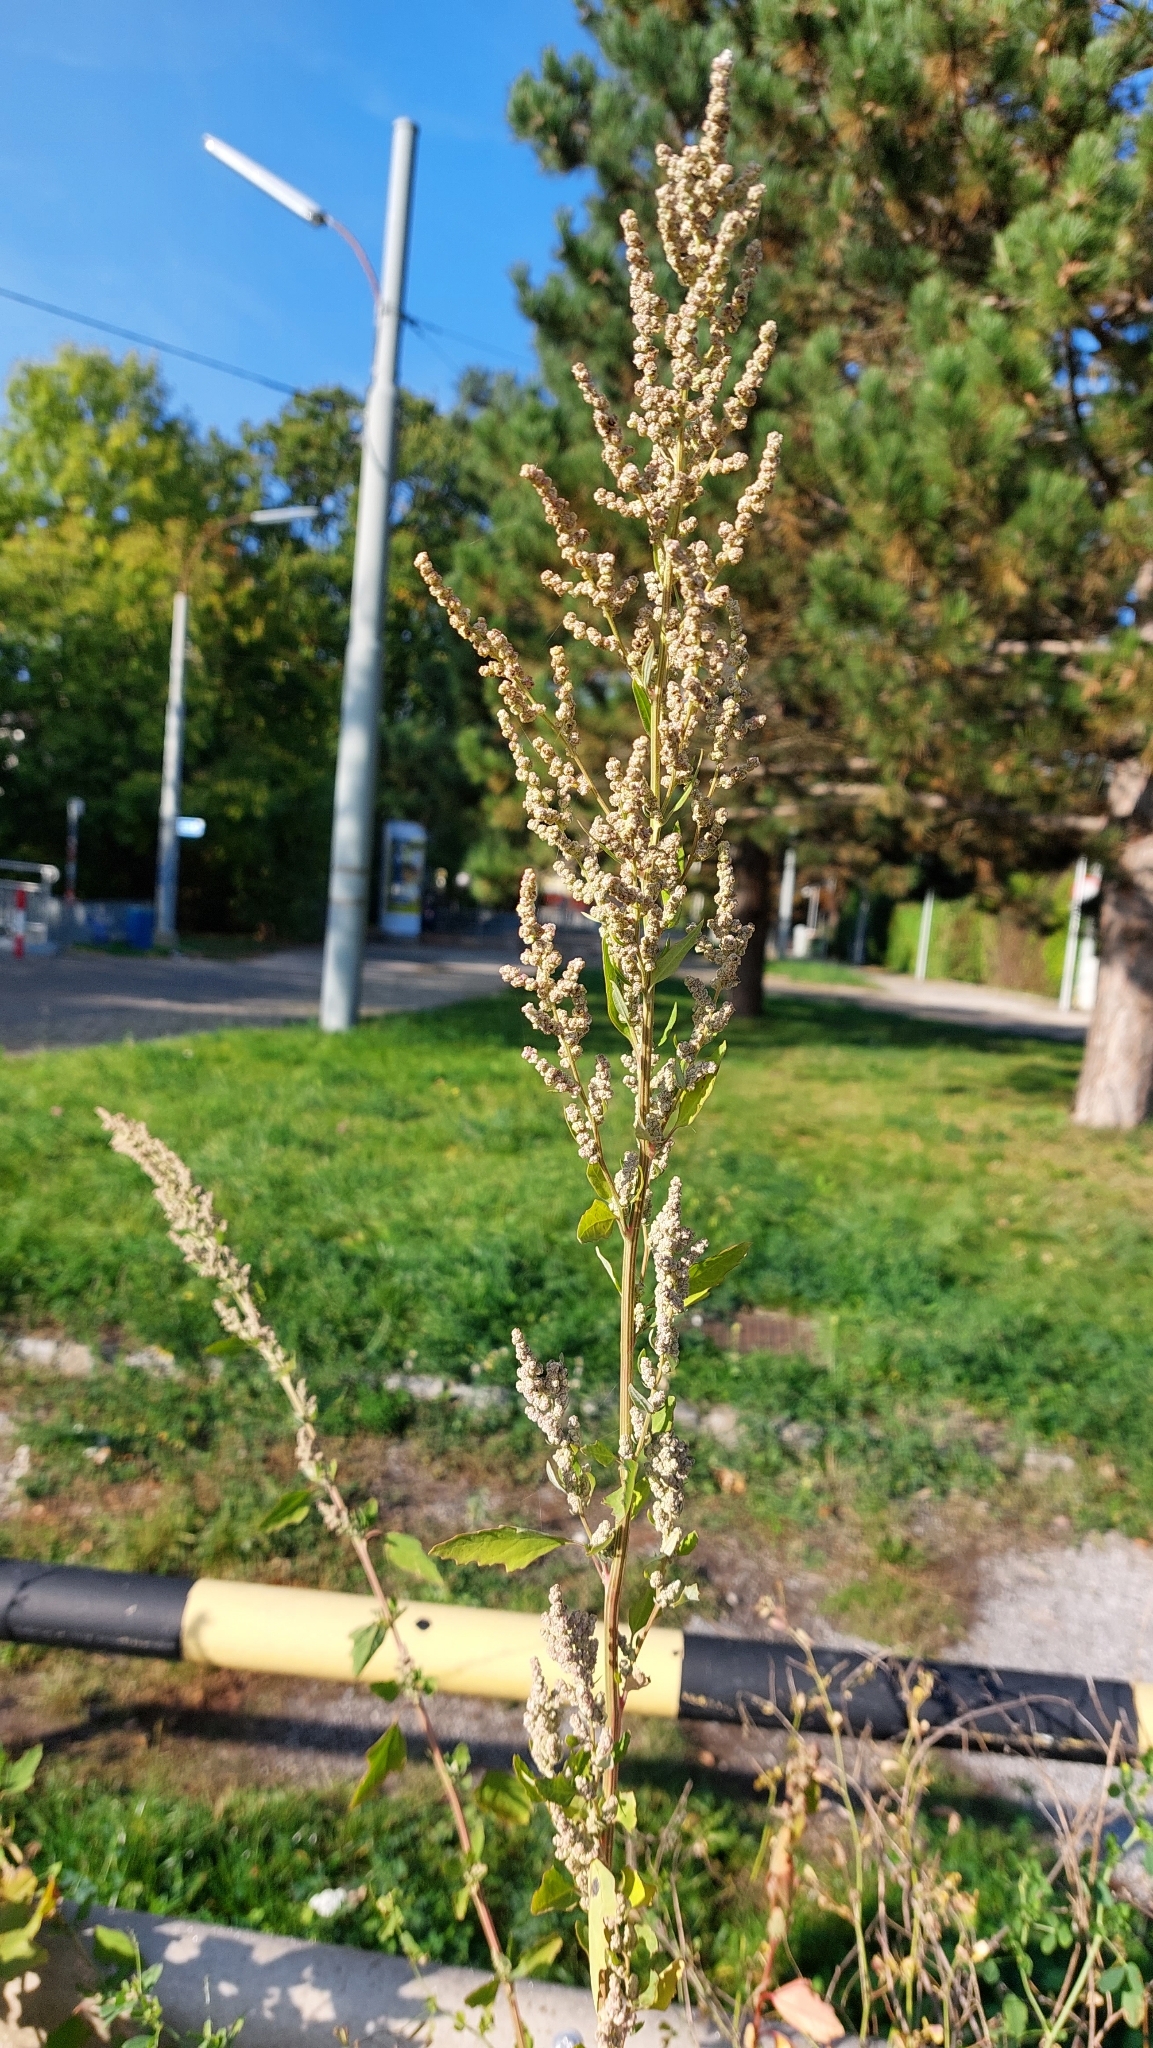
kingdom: Plantae
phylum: Tracheophyta
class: Magnoliopsida
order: Caryophyllales
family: Amaranthaceae
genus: Chenopodium
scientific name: Chenopodium album
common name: Fat-hen
